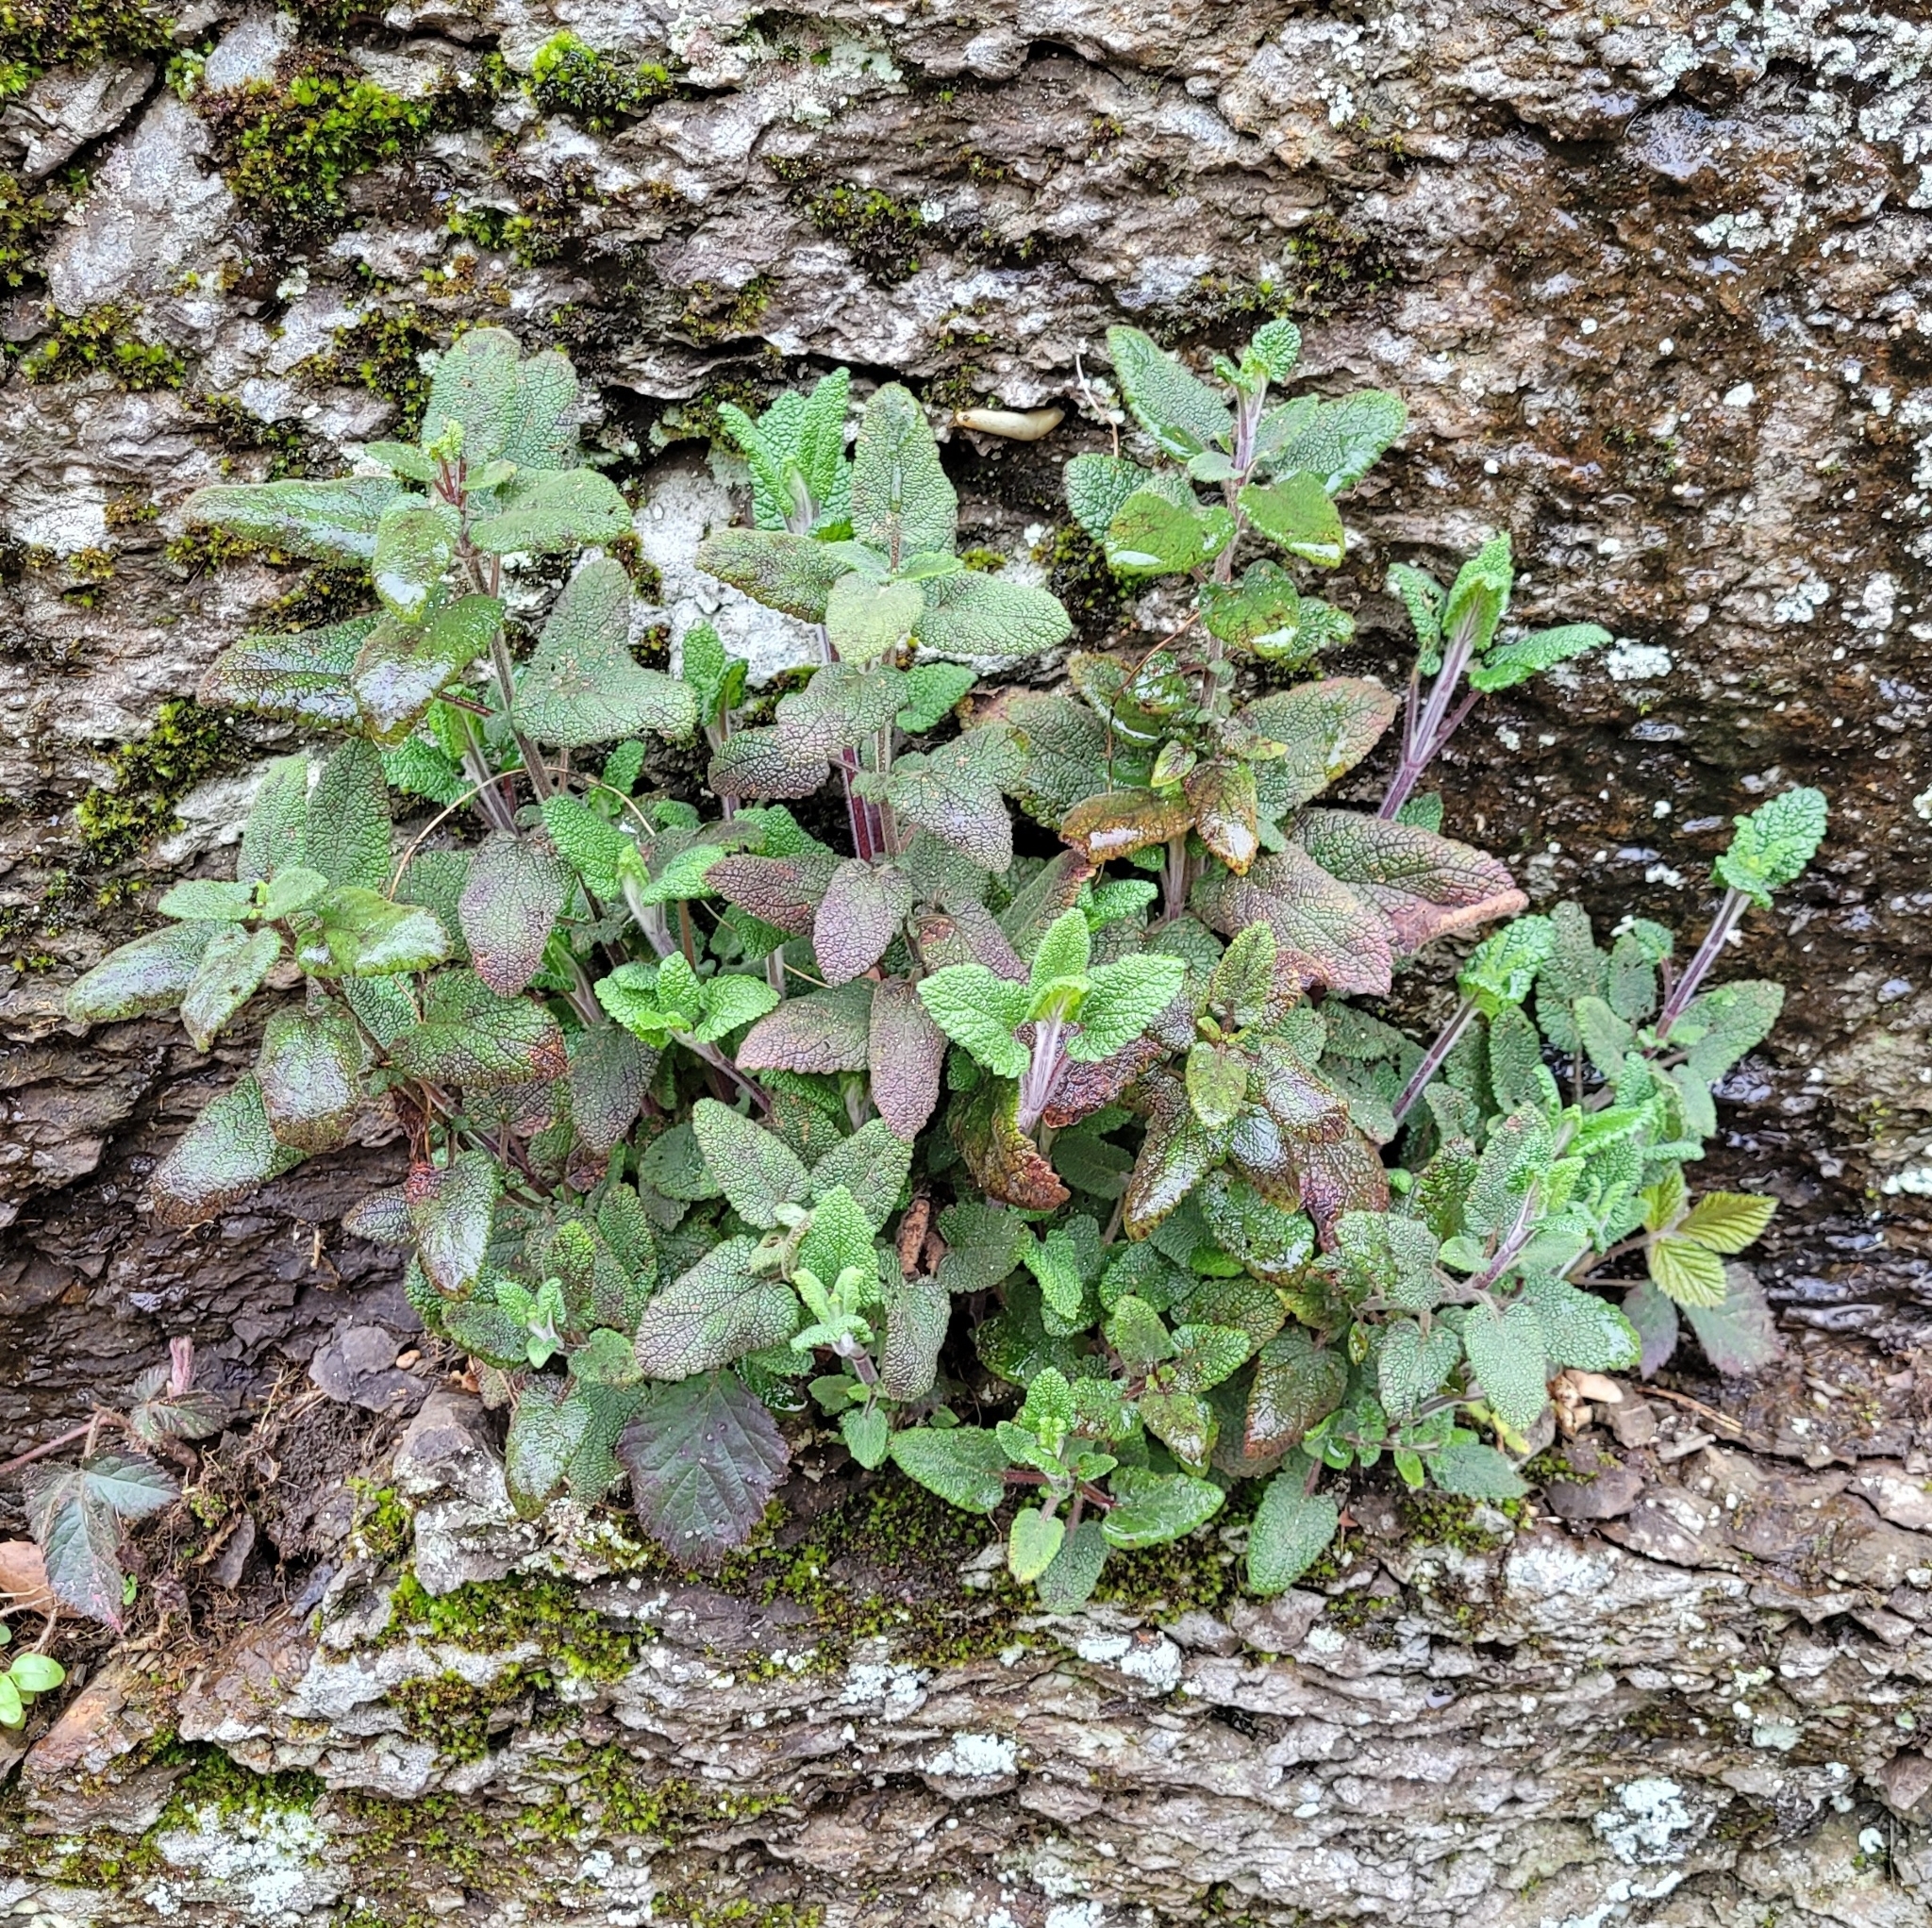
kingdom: Plantae
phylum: Tracheophyta
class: Magnoliopsida
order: Lamiales
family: Lamiaceae
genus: Teucrium
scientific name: Teucrium scorodonia
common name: Woodland germander
